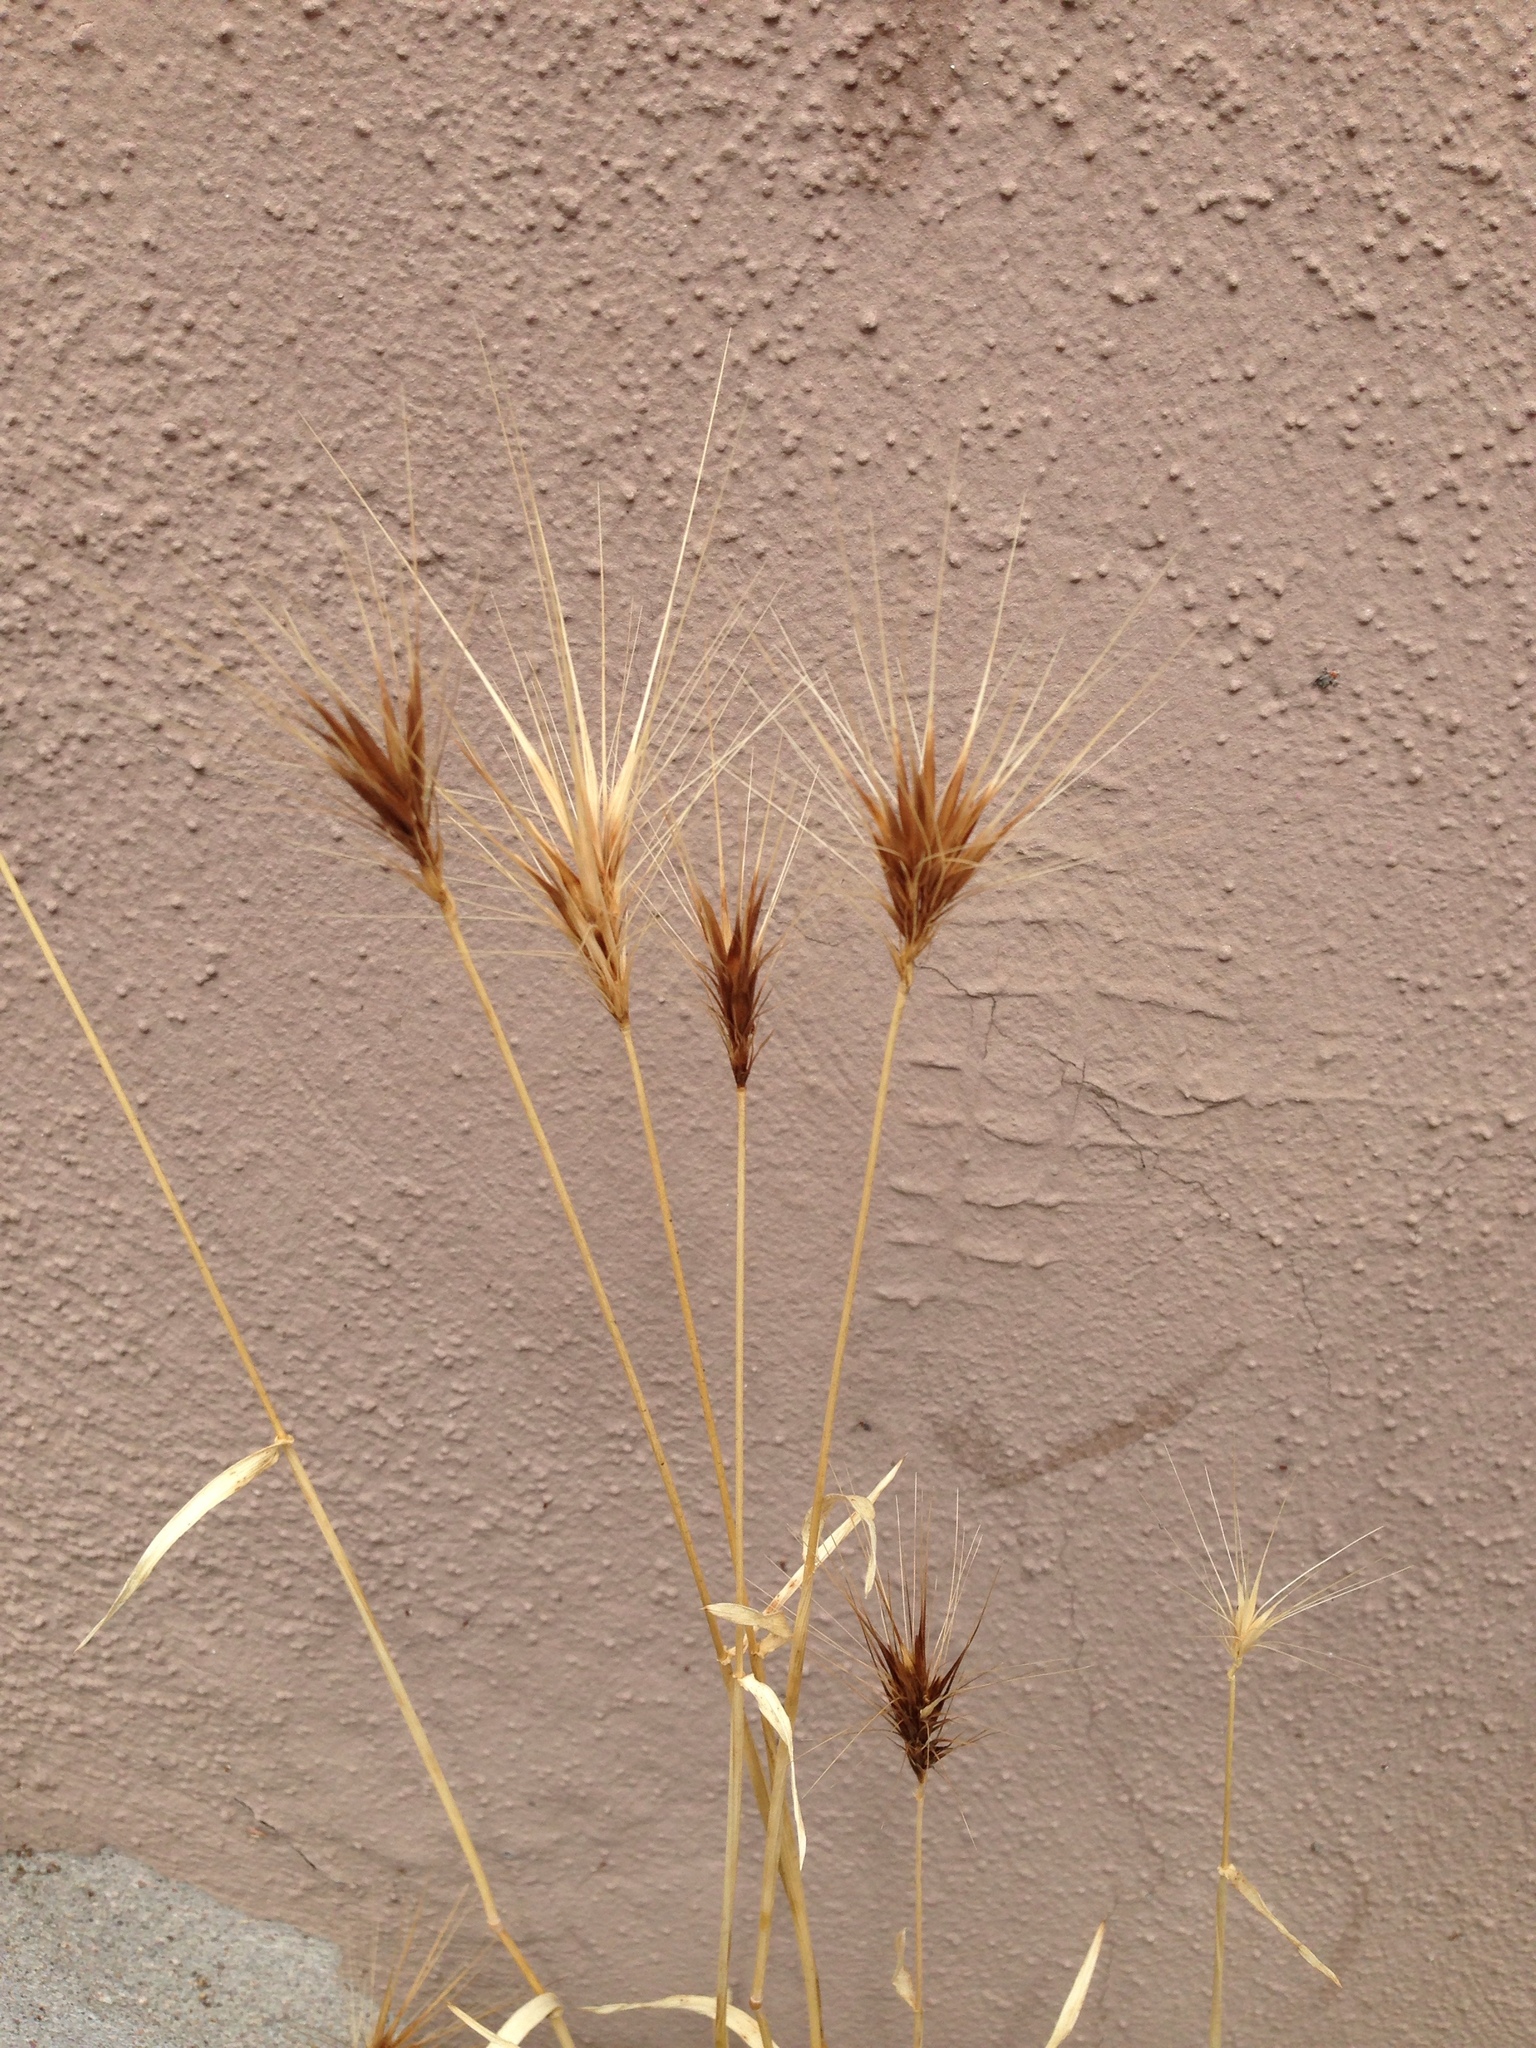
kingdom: Plantae
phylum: Tracheophyta
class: Liliopsida
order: Poales
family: Poaceae
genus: Hordeum
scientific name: Hordeum murinum
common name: Wall barley
